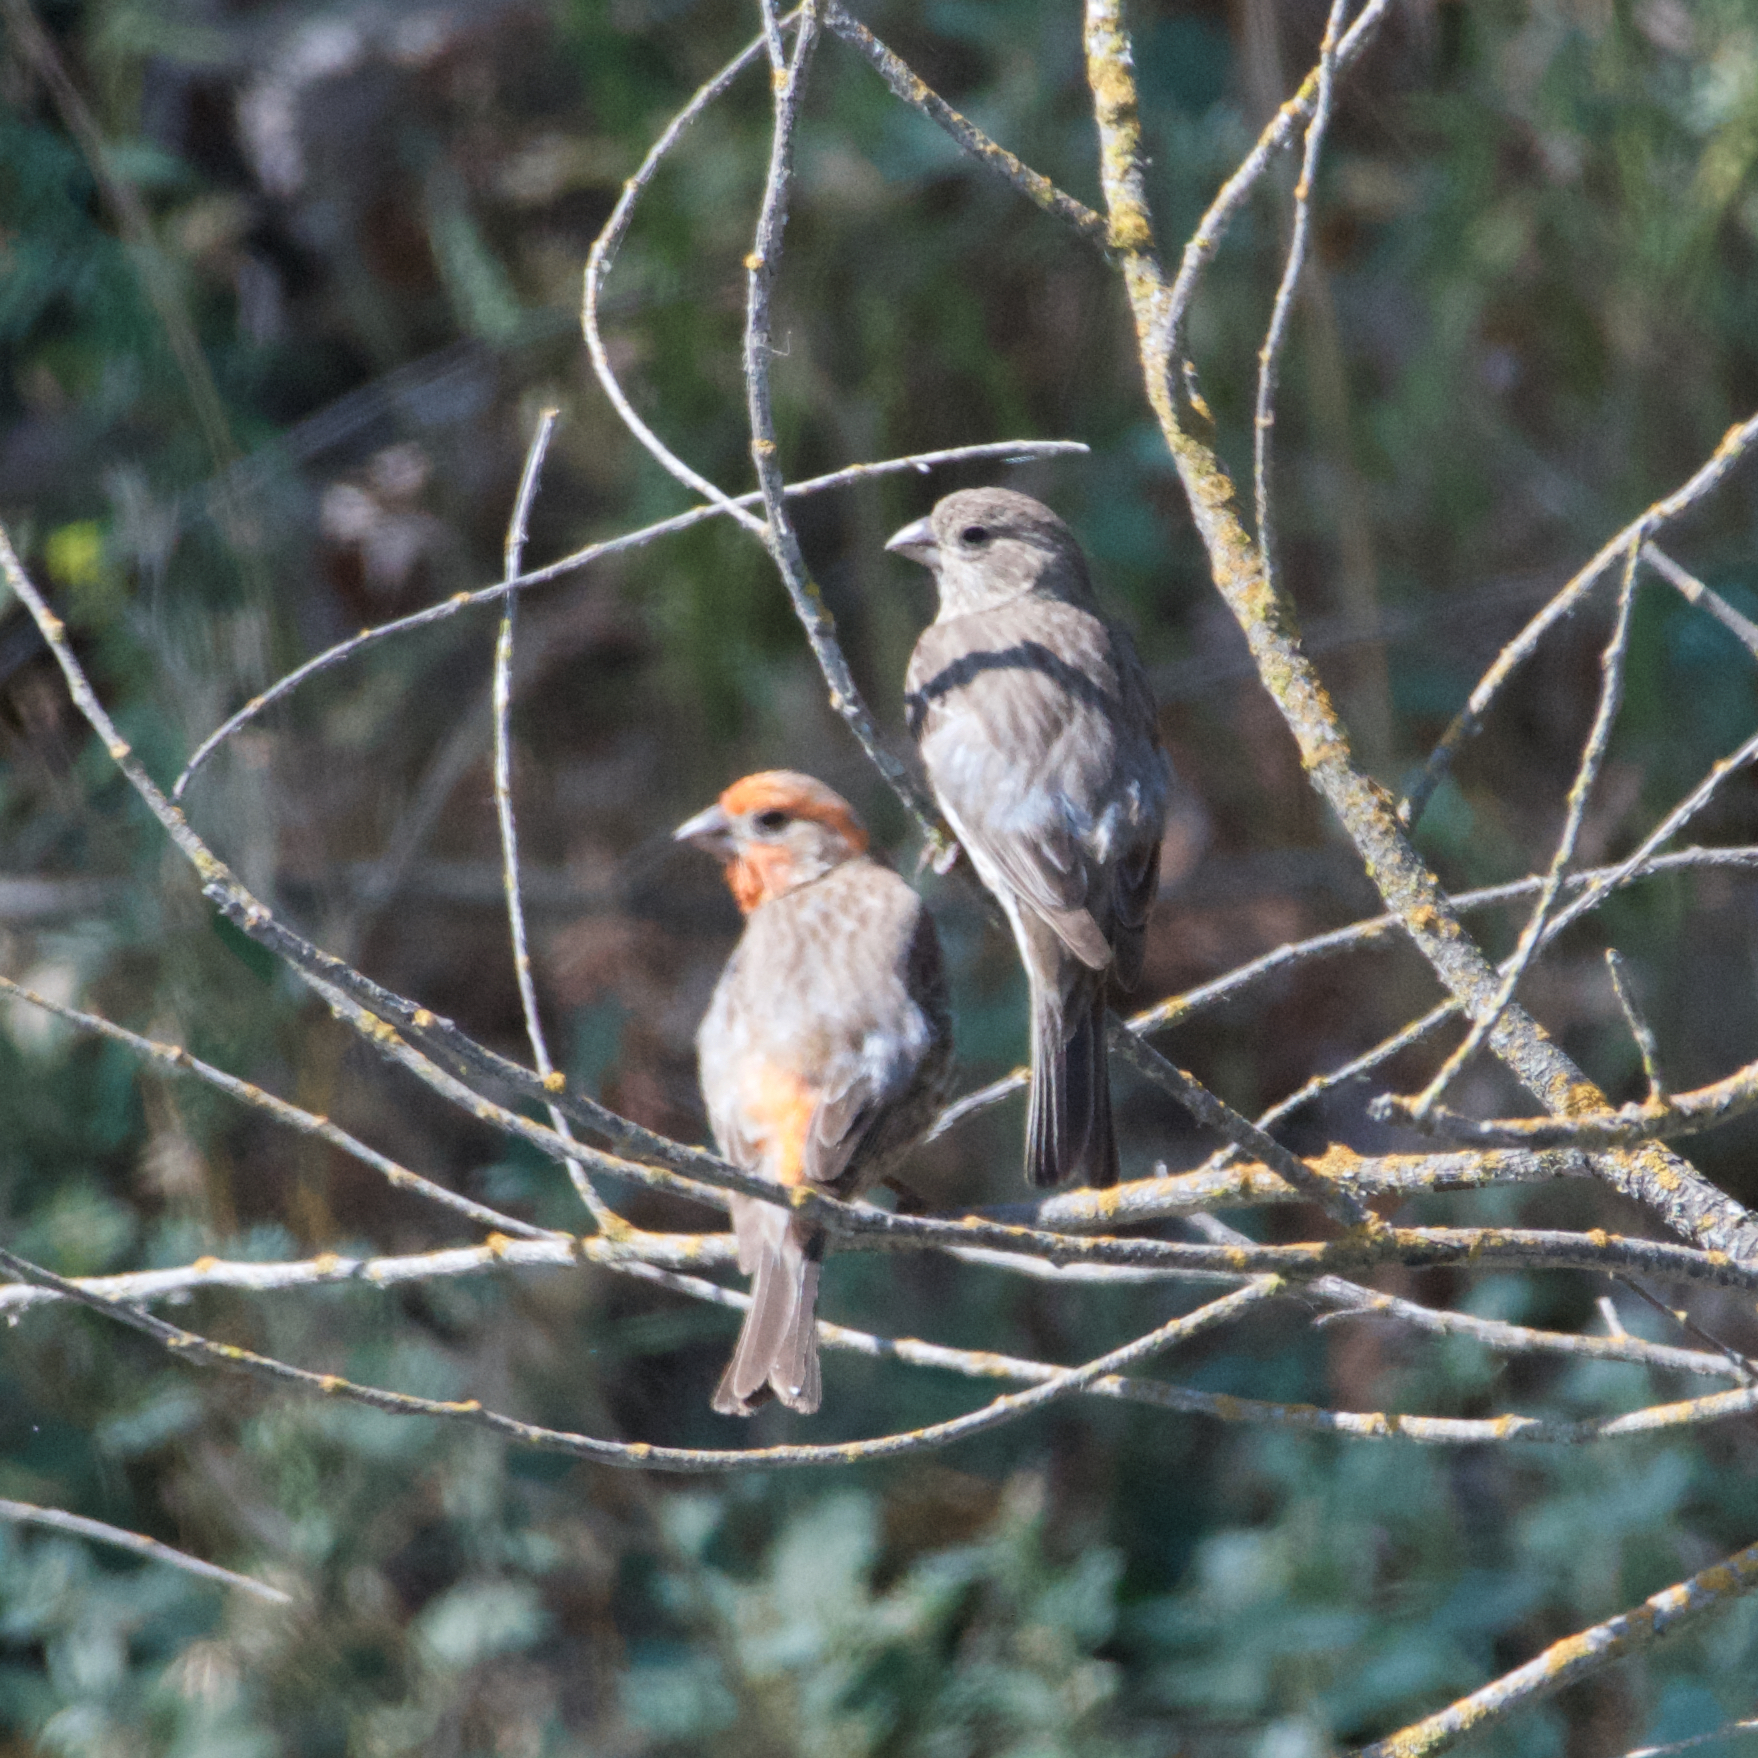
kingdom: Animalia
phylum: Chordata
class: Aves
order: Passeriformes
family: Fringillidae
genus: Haemorhous
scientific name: Haemorhous mexicanus
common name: House finch
